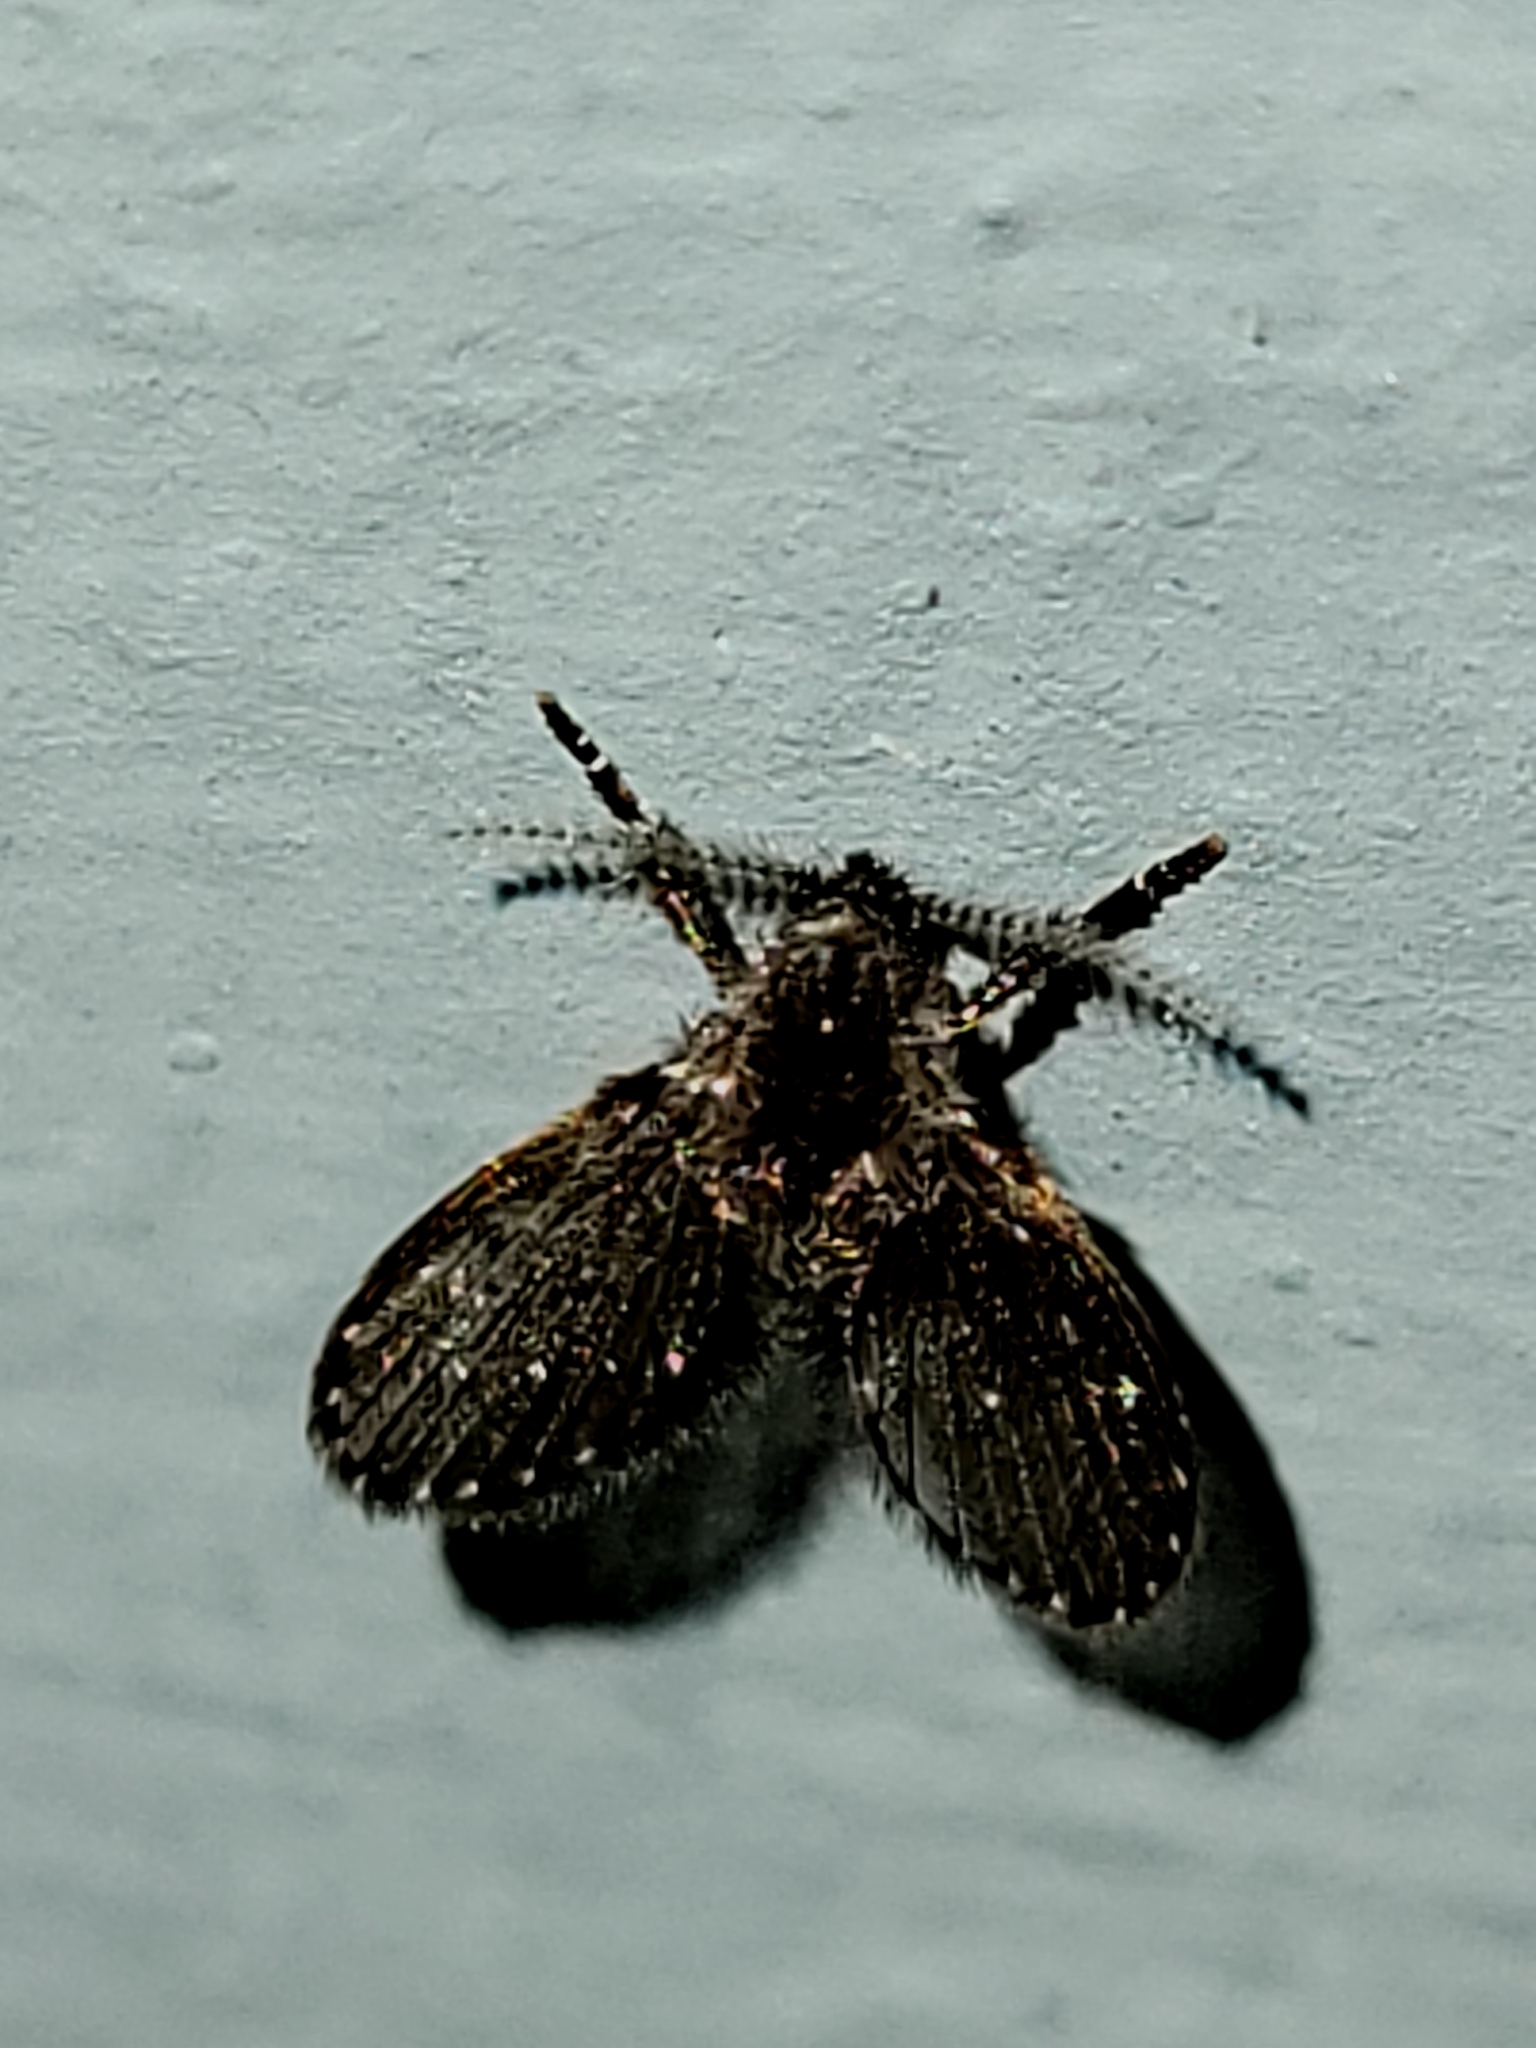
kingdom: Animalia
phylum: Arthropoda
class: Insecta
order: Diptera
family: Psychodidae
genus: Clogmia
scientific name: Clogmia albipunctatus
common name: White-spotted moth fly
